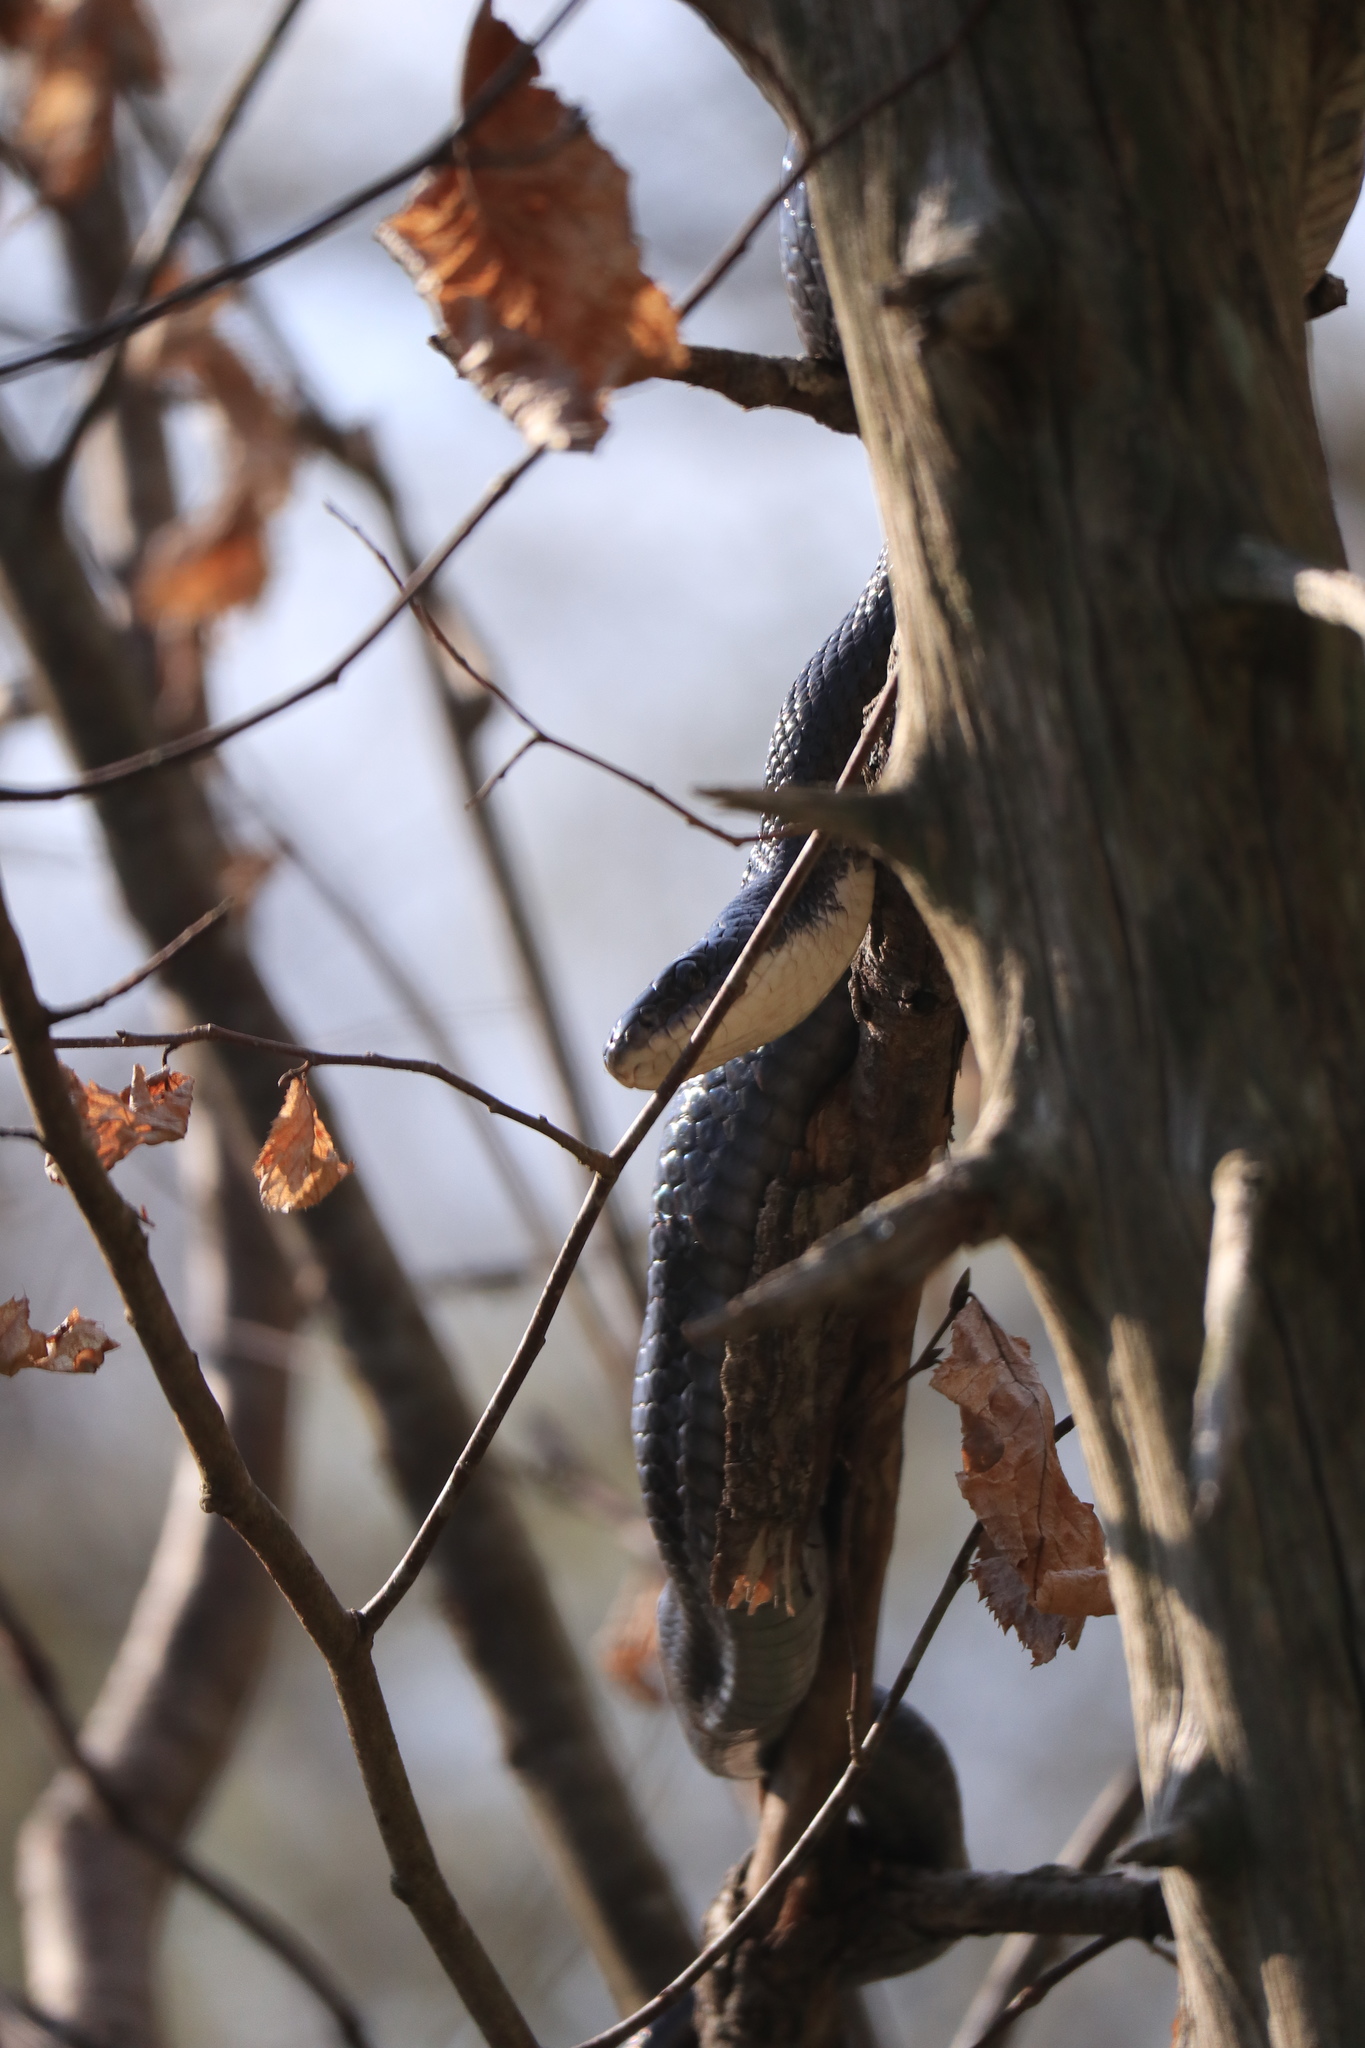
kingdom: Animalia
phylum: Chordata
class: Squamata
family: Colubridae
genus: Pantherophis
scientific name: Pantherophis alleghaniensis
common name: Eastern rat snake
